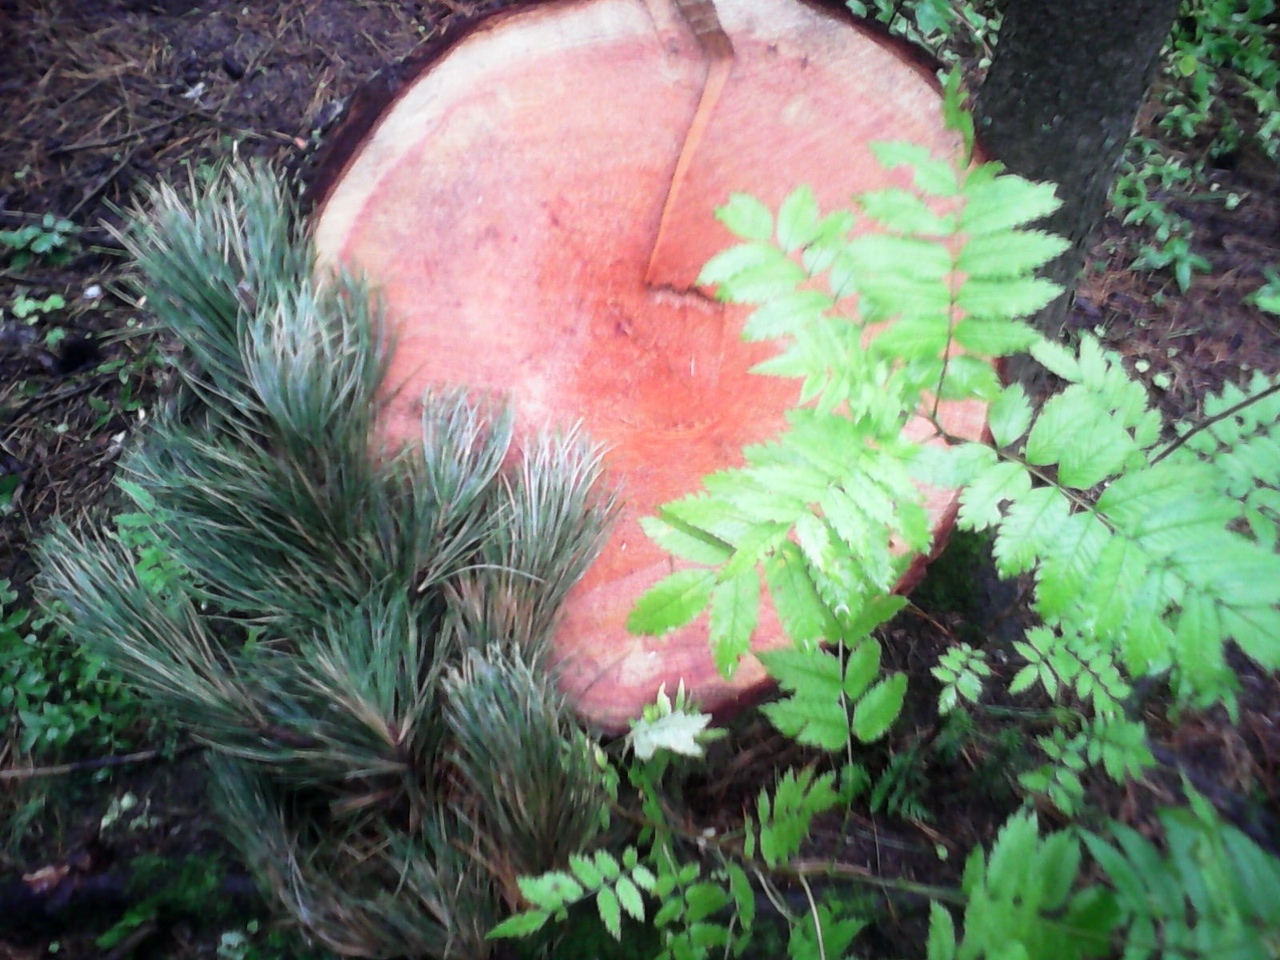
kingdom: Plantae
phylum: Tracheophyta
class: Magnoliopsida
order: Rosales
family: Rosaceae
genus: Sorbus
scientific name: Sorbus aucuparia
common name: Rowan
